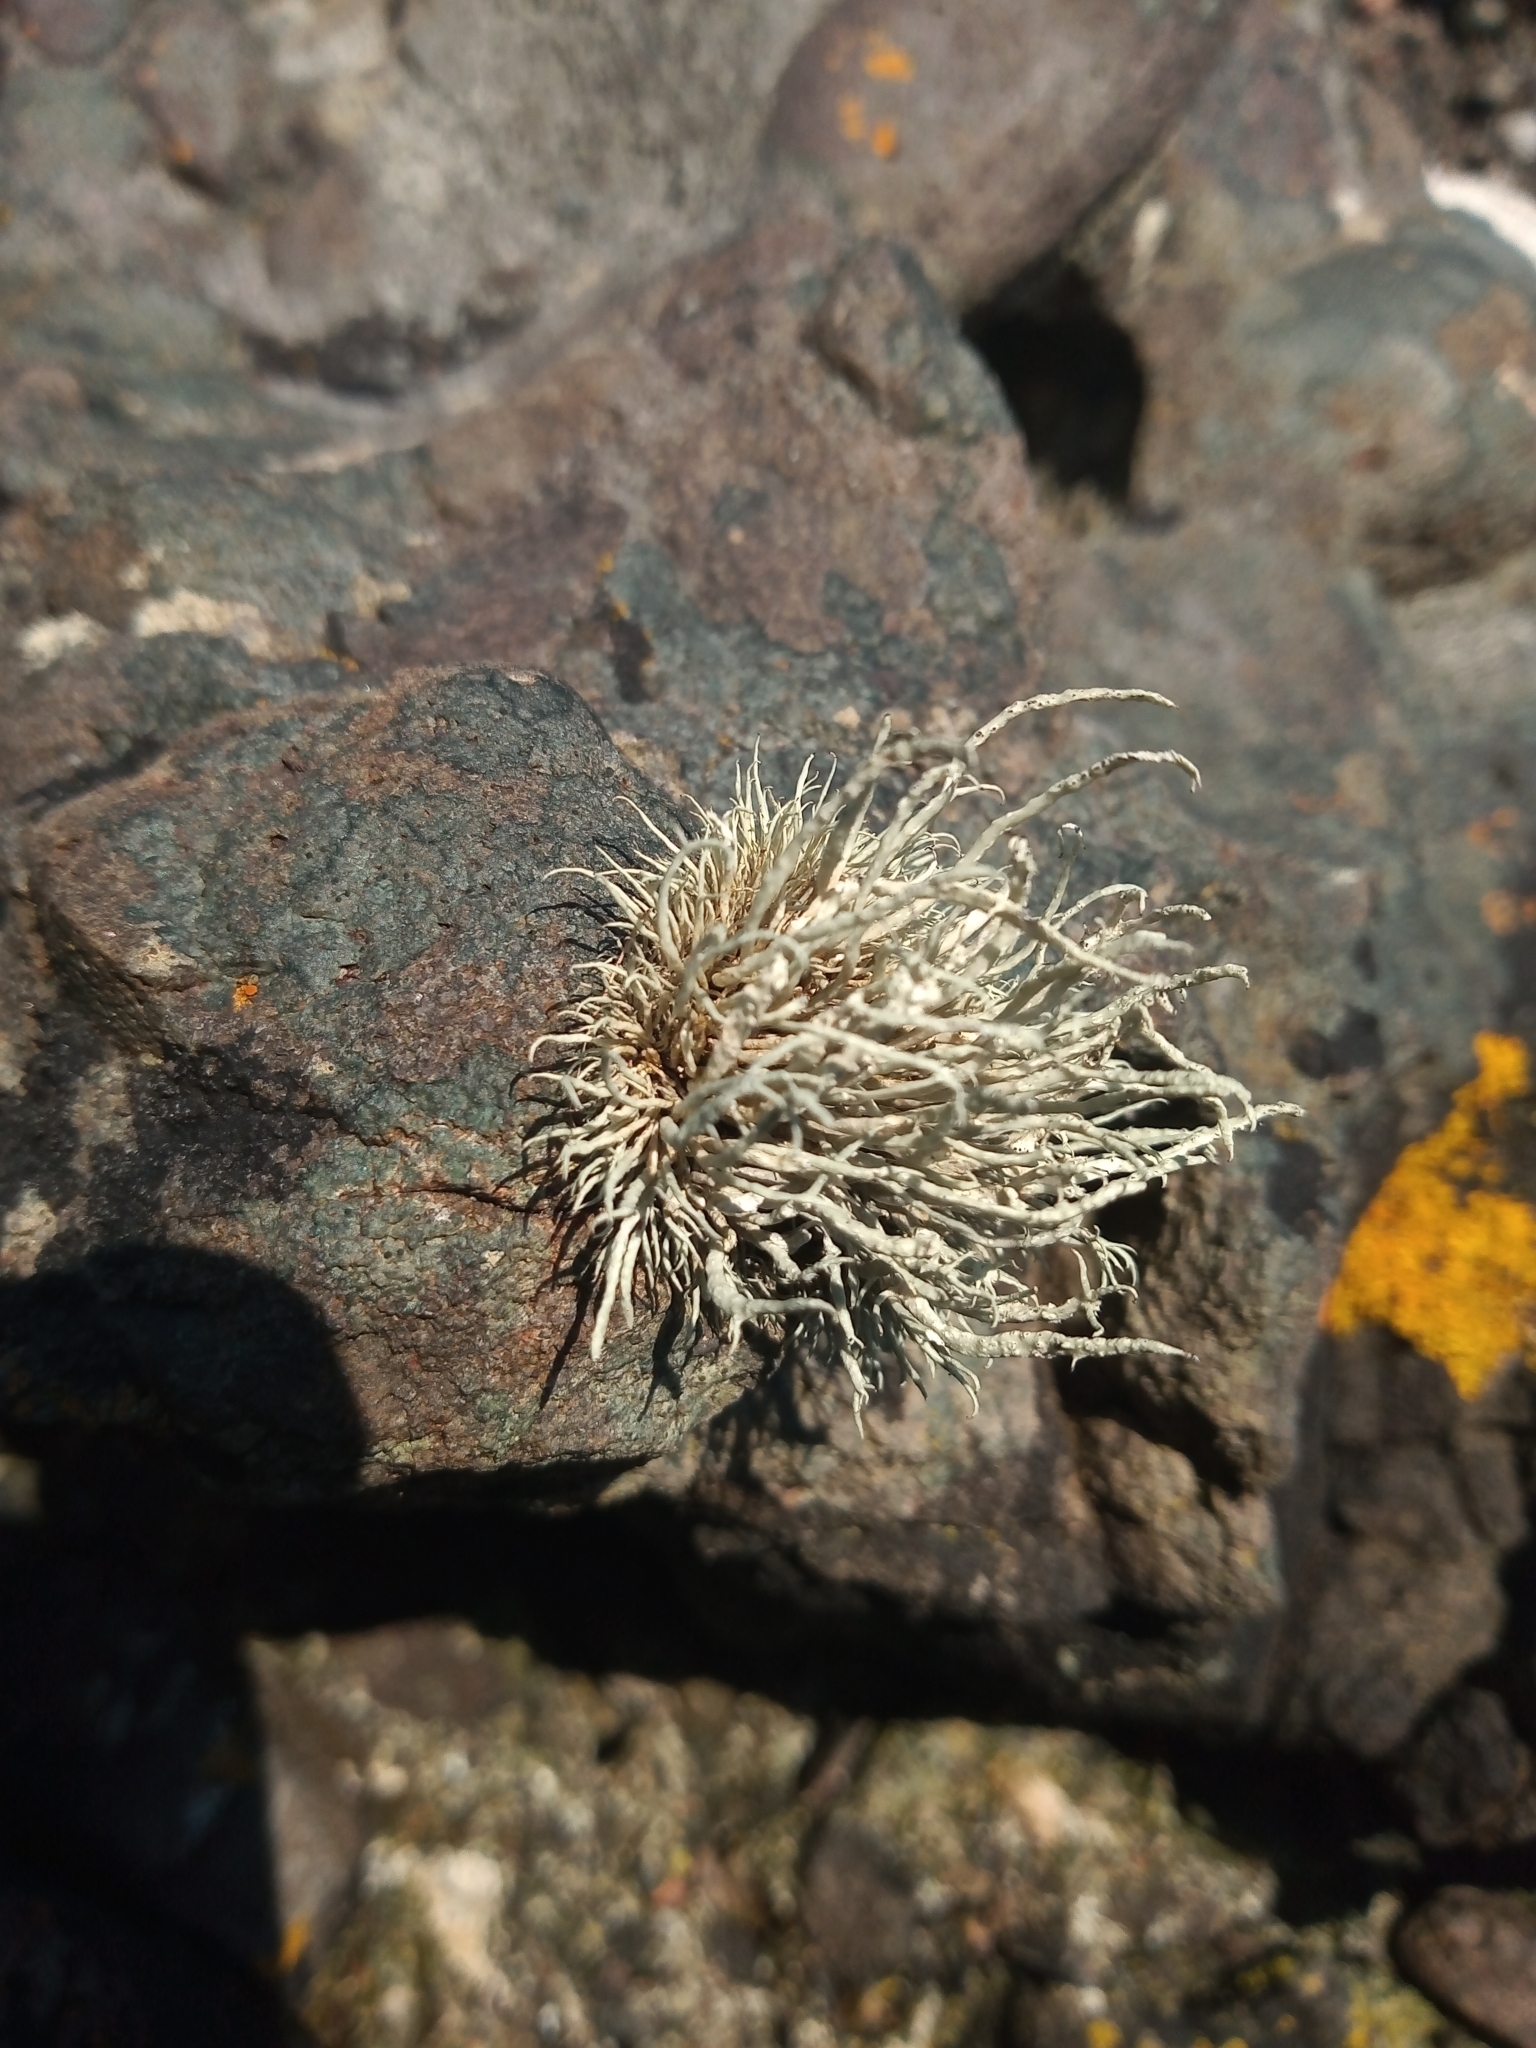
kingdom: Fungi
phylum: Ascomycota
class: Lecanoromycetes
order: Lecanorales
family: Ramalinaceae
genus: Ramalina
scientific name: Ramalina cuspidata
